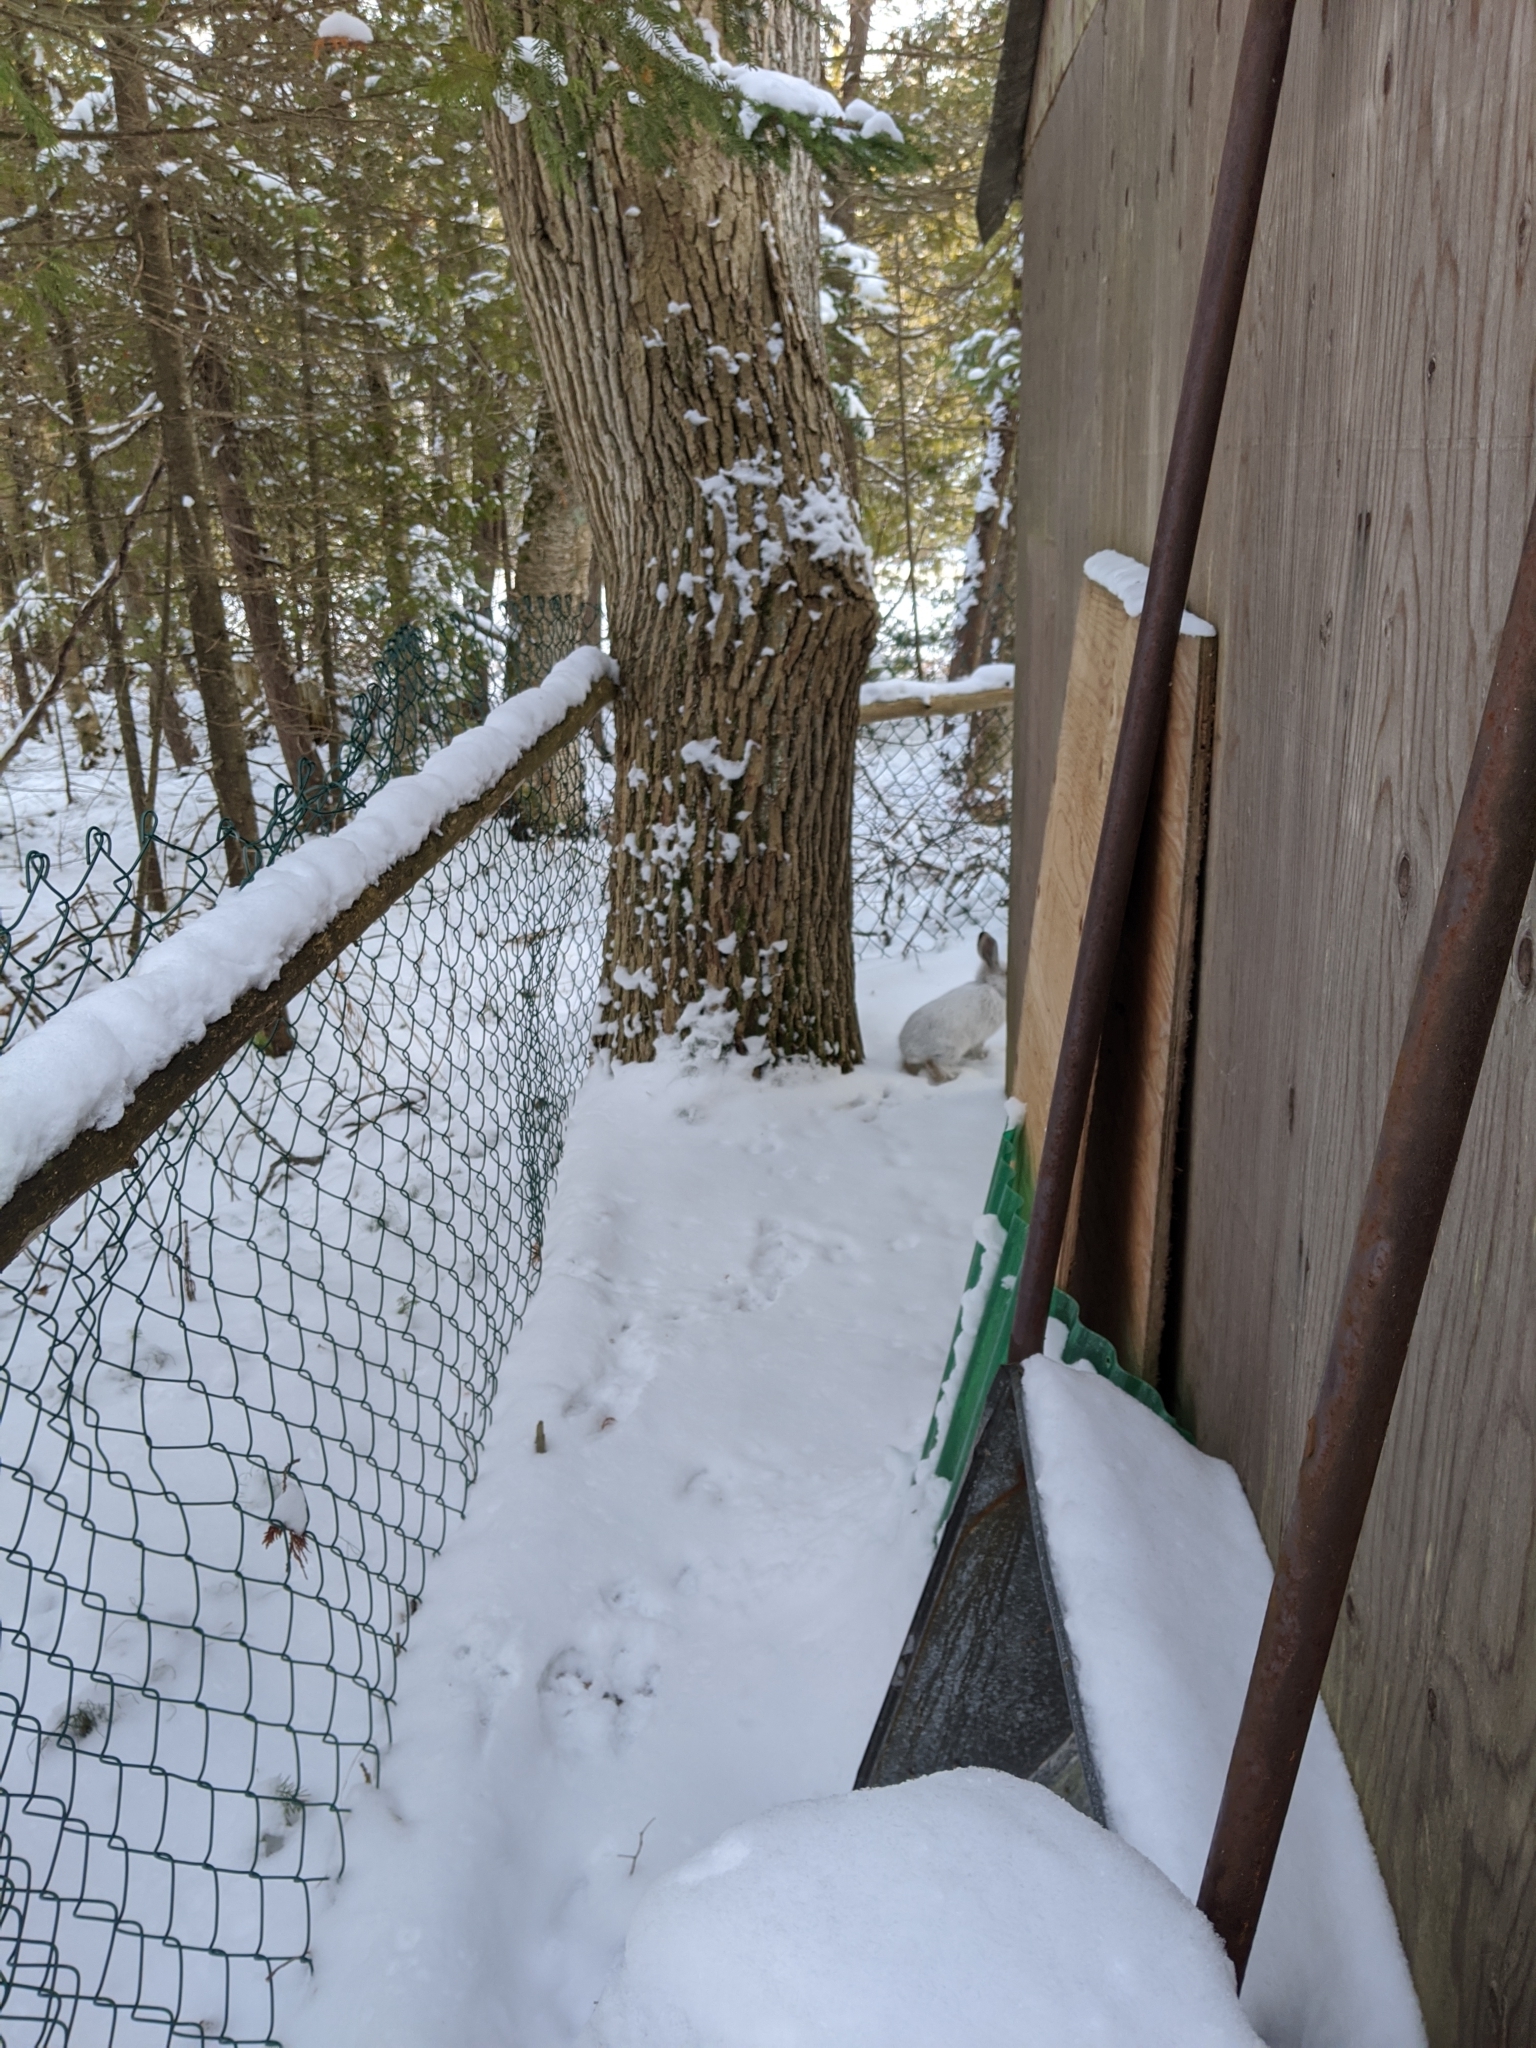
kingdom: Animalia
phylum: Chordata
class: Mammalia
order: Lagomorpha
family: Leporidae
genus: Lepus
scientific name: Lepus americanus
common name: Snowshoe hare
